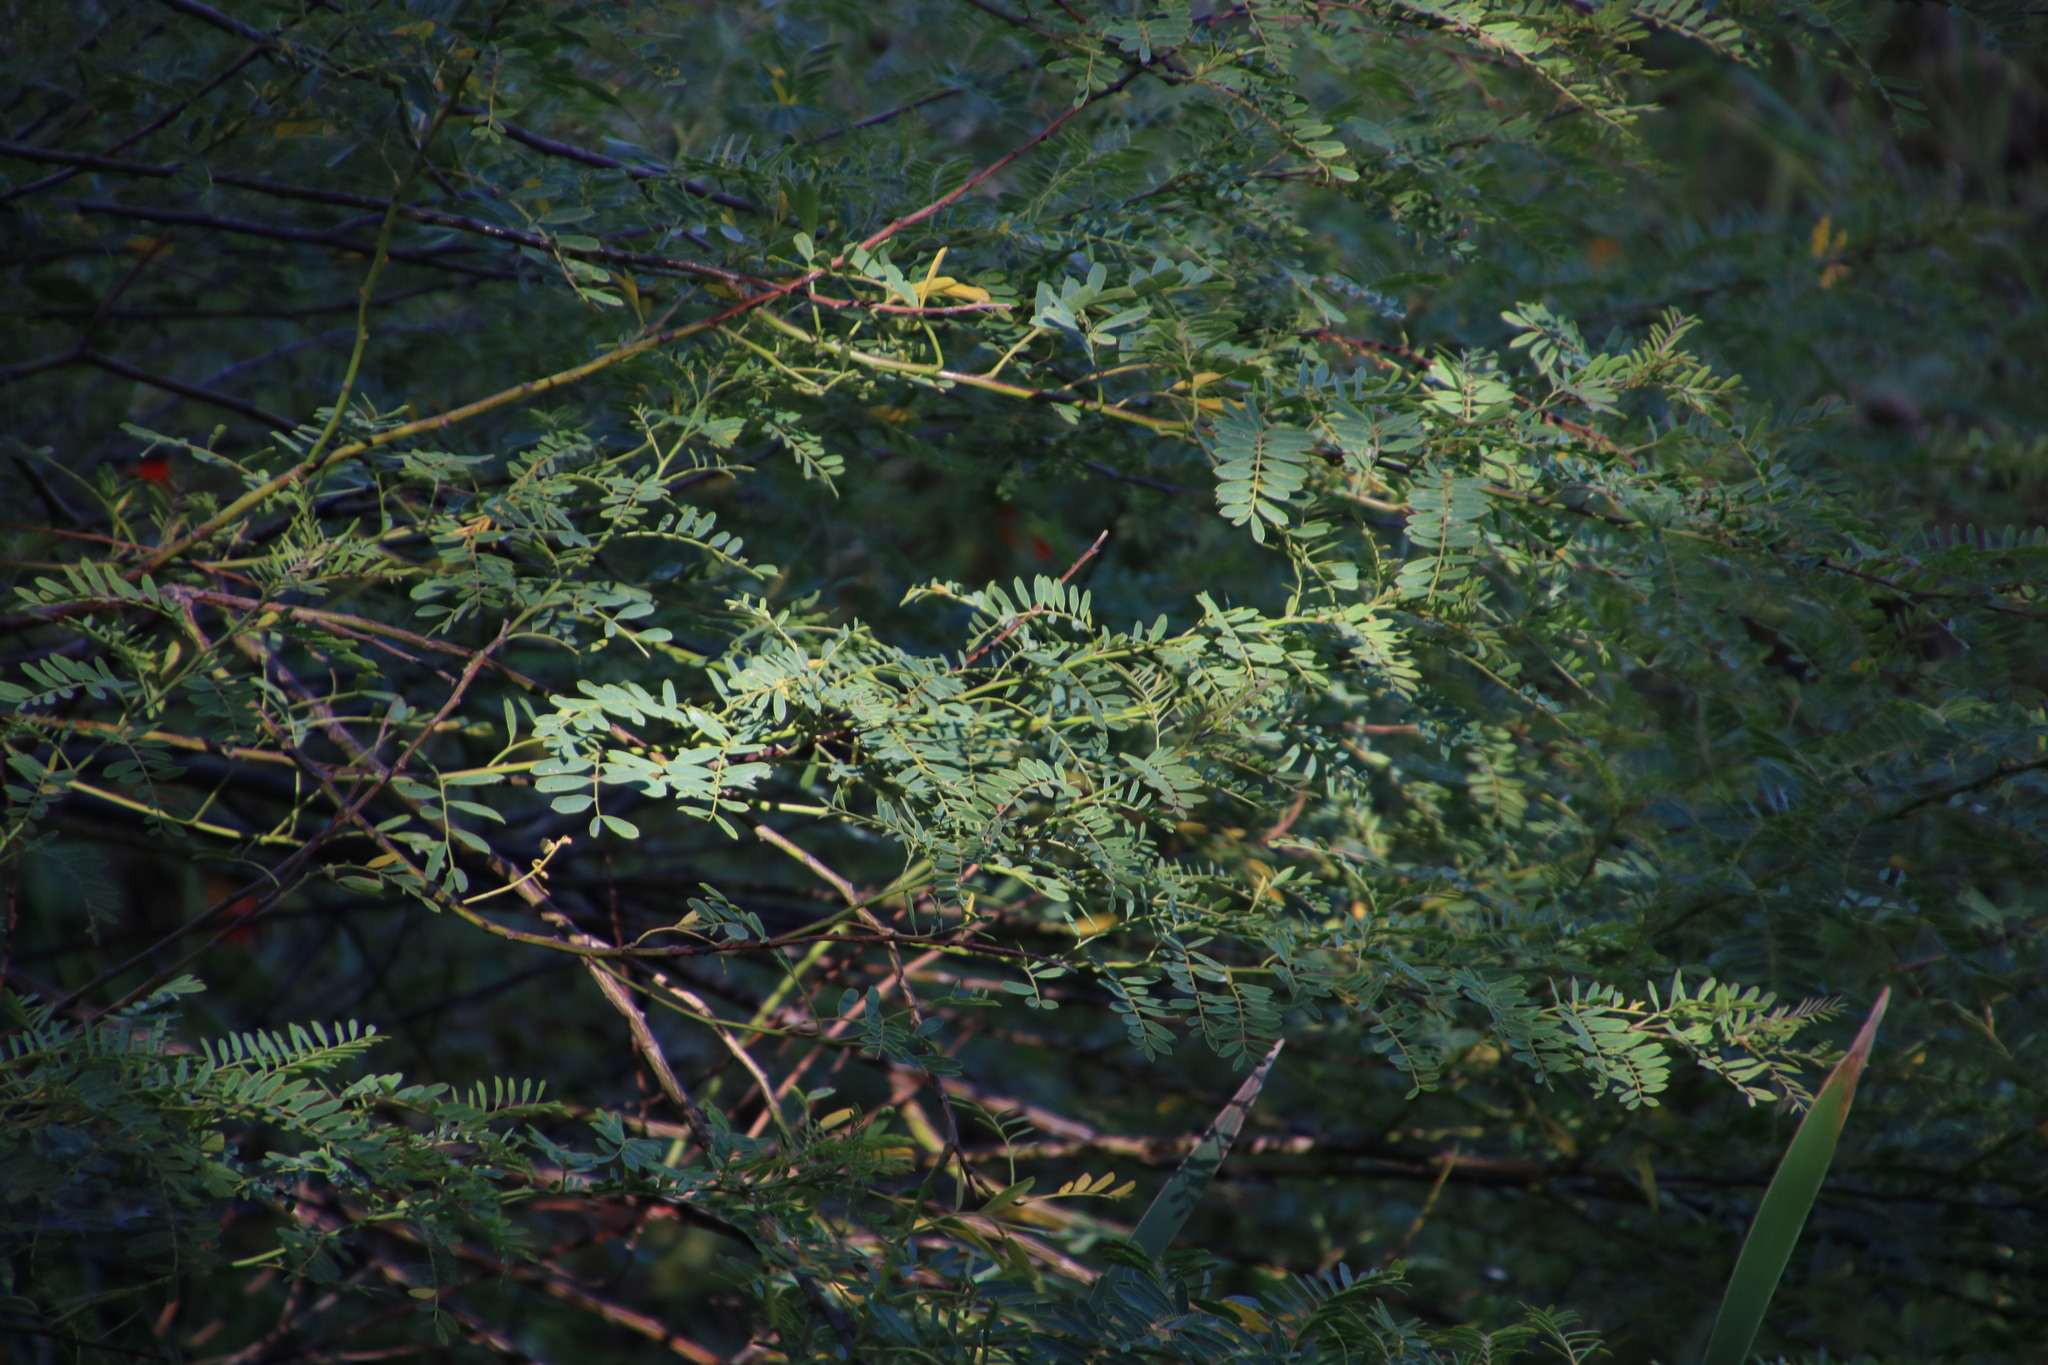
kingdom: Plantae
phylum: Tracheophyta
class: Magnoliopsida
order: Fabales
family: Fabaceae
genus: Sesbania
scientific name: Sesbania punicea
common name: Rattlebox
